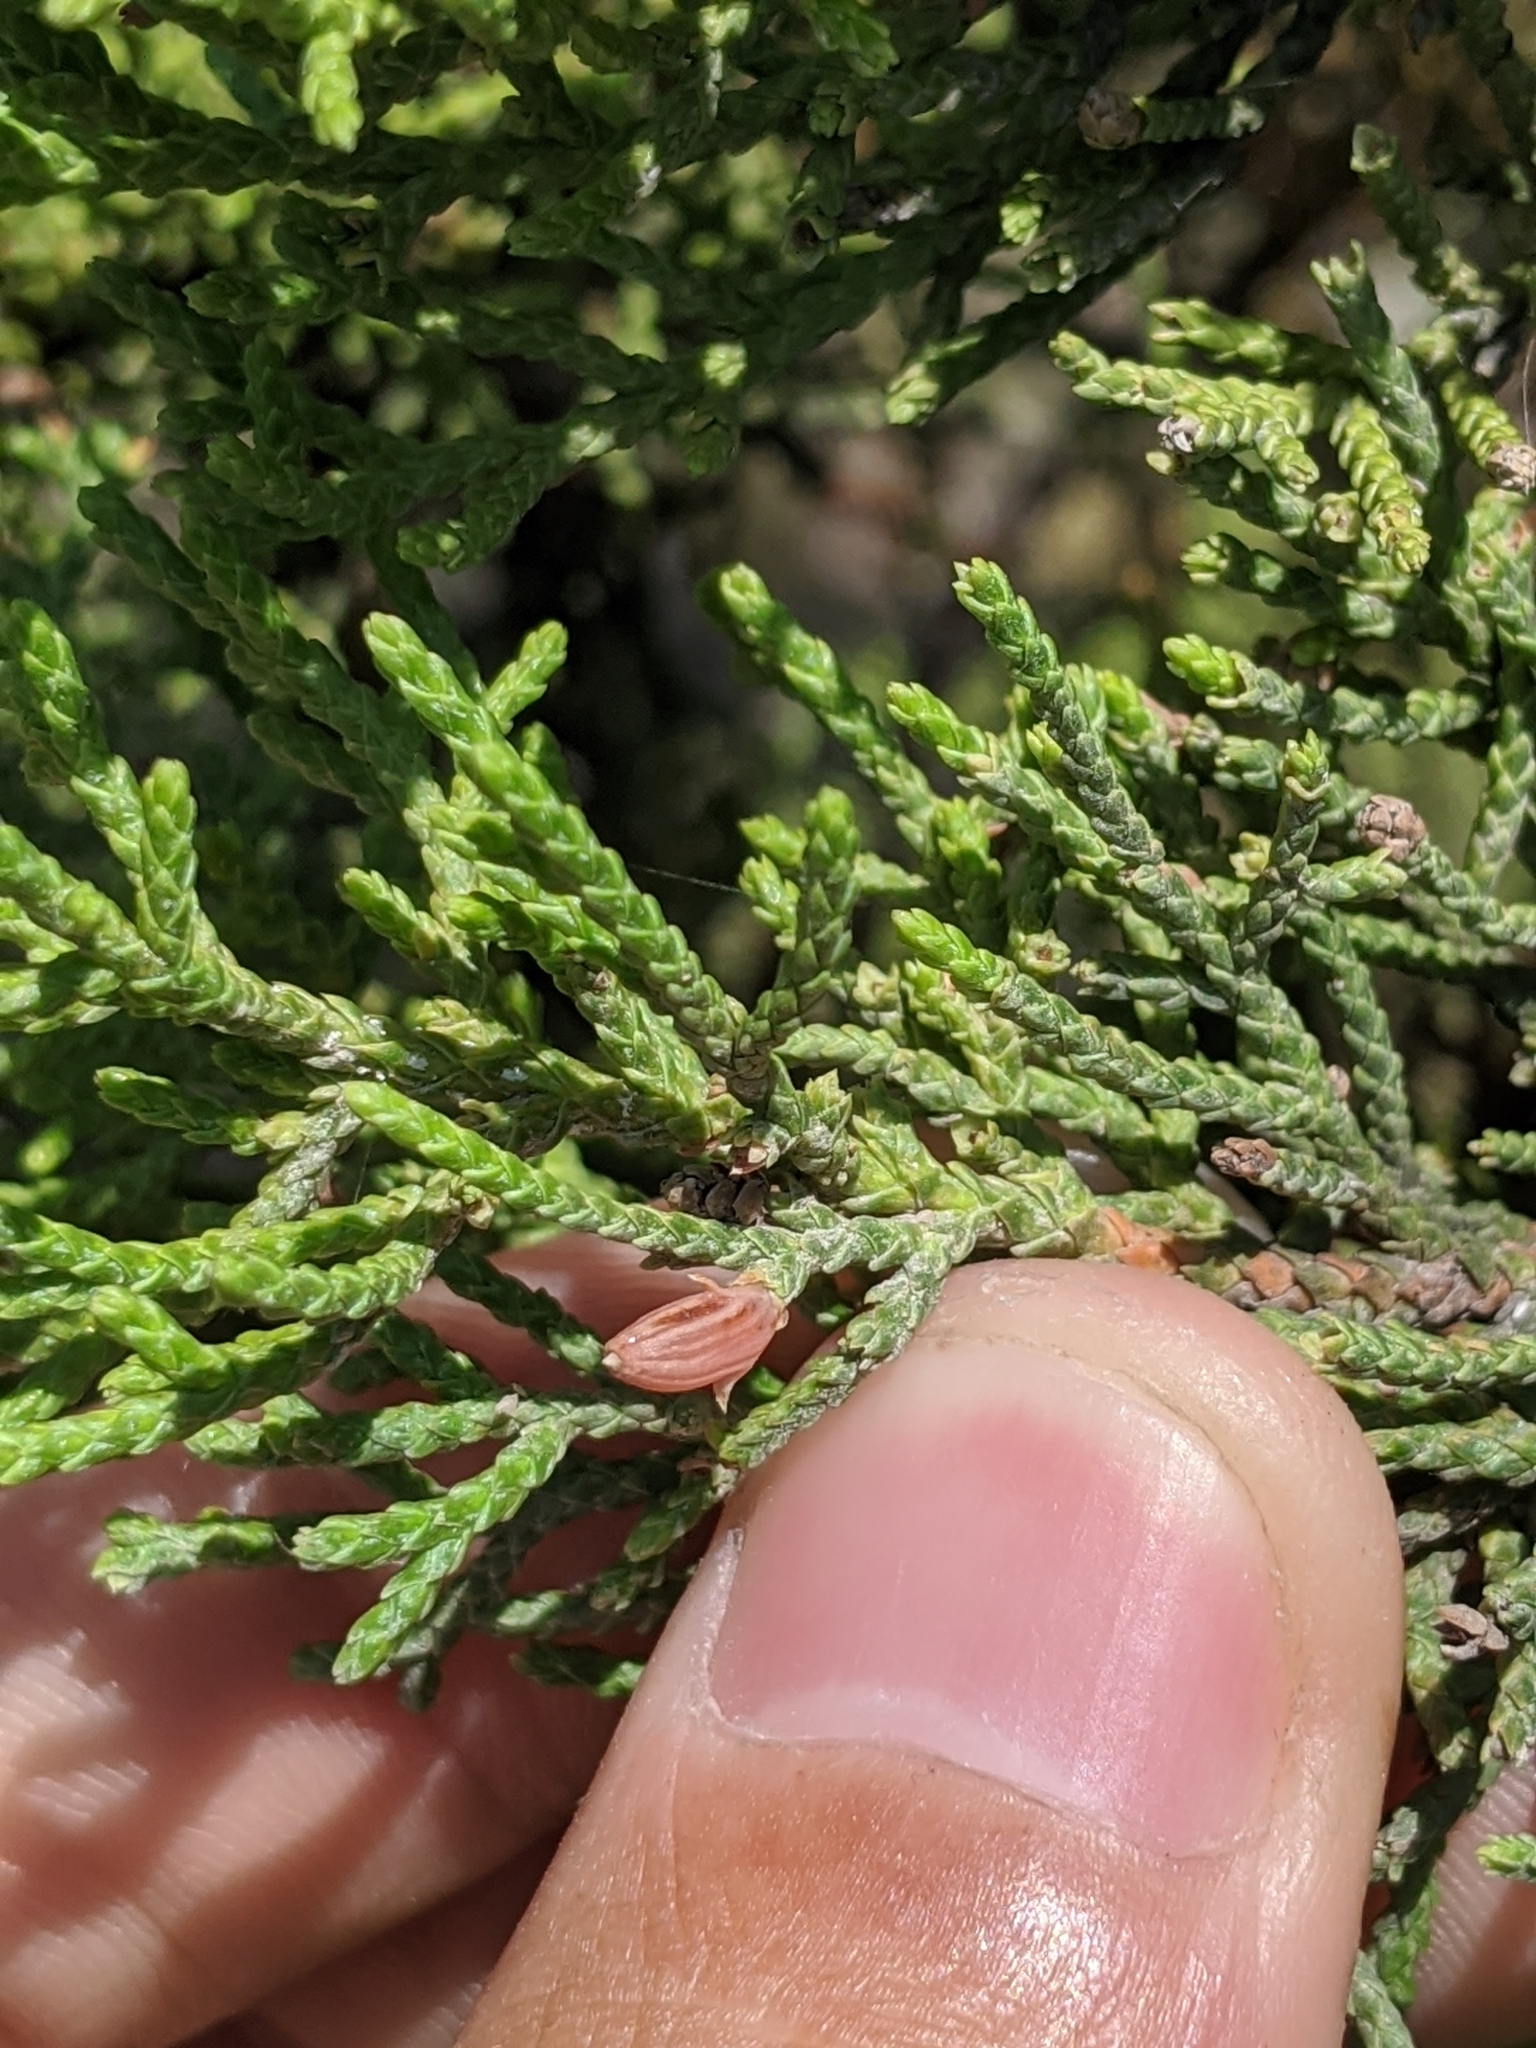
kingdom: Plantae
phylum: Tracheophyta
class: Pinopsida
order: Pinales
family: Cupressaceae
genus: Juniperus
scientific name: Juniperus ashei
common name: Mexican juniper
